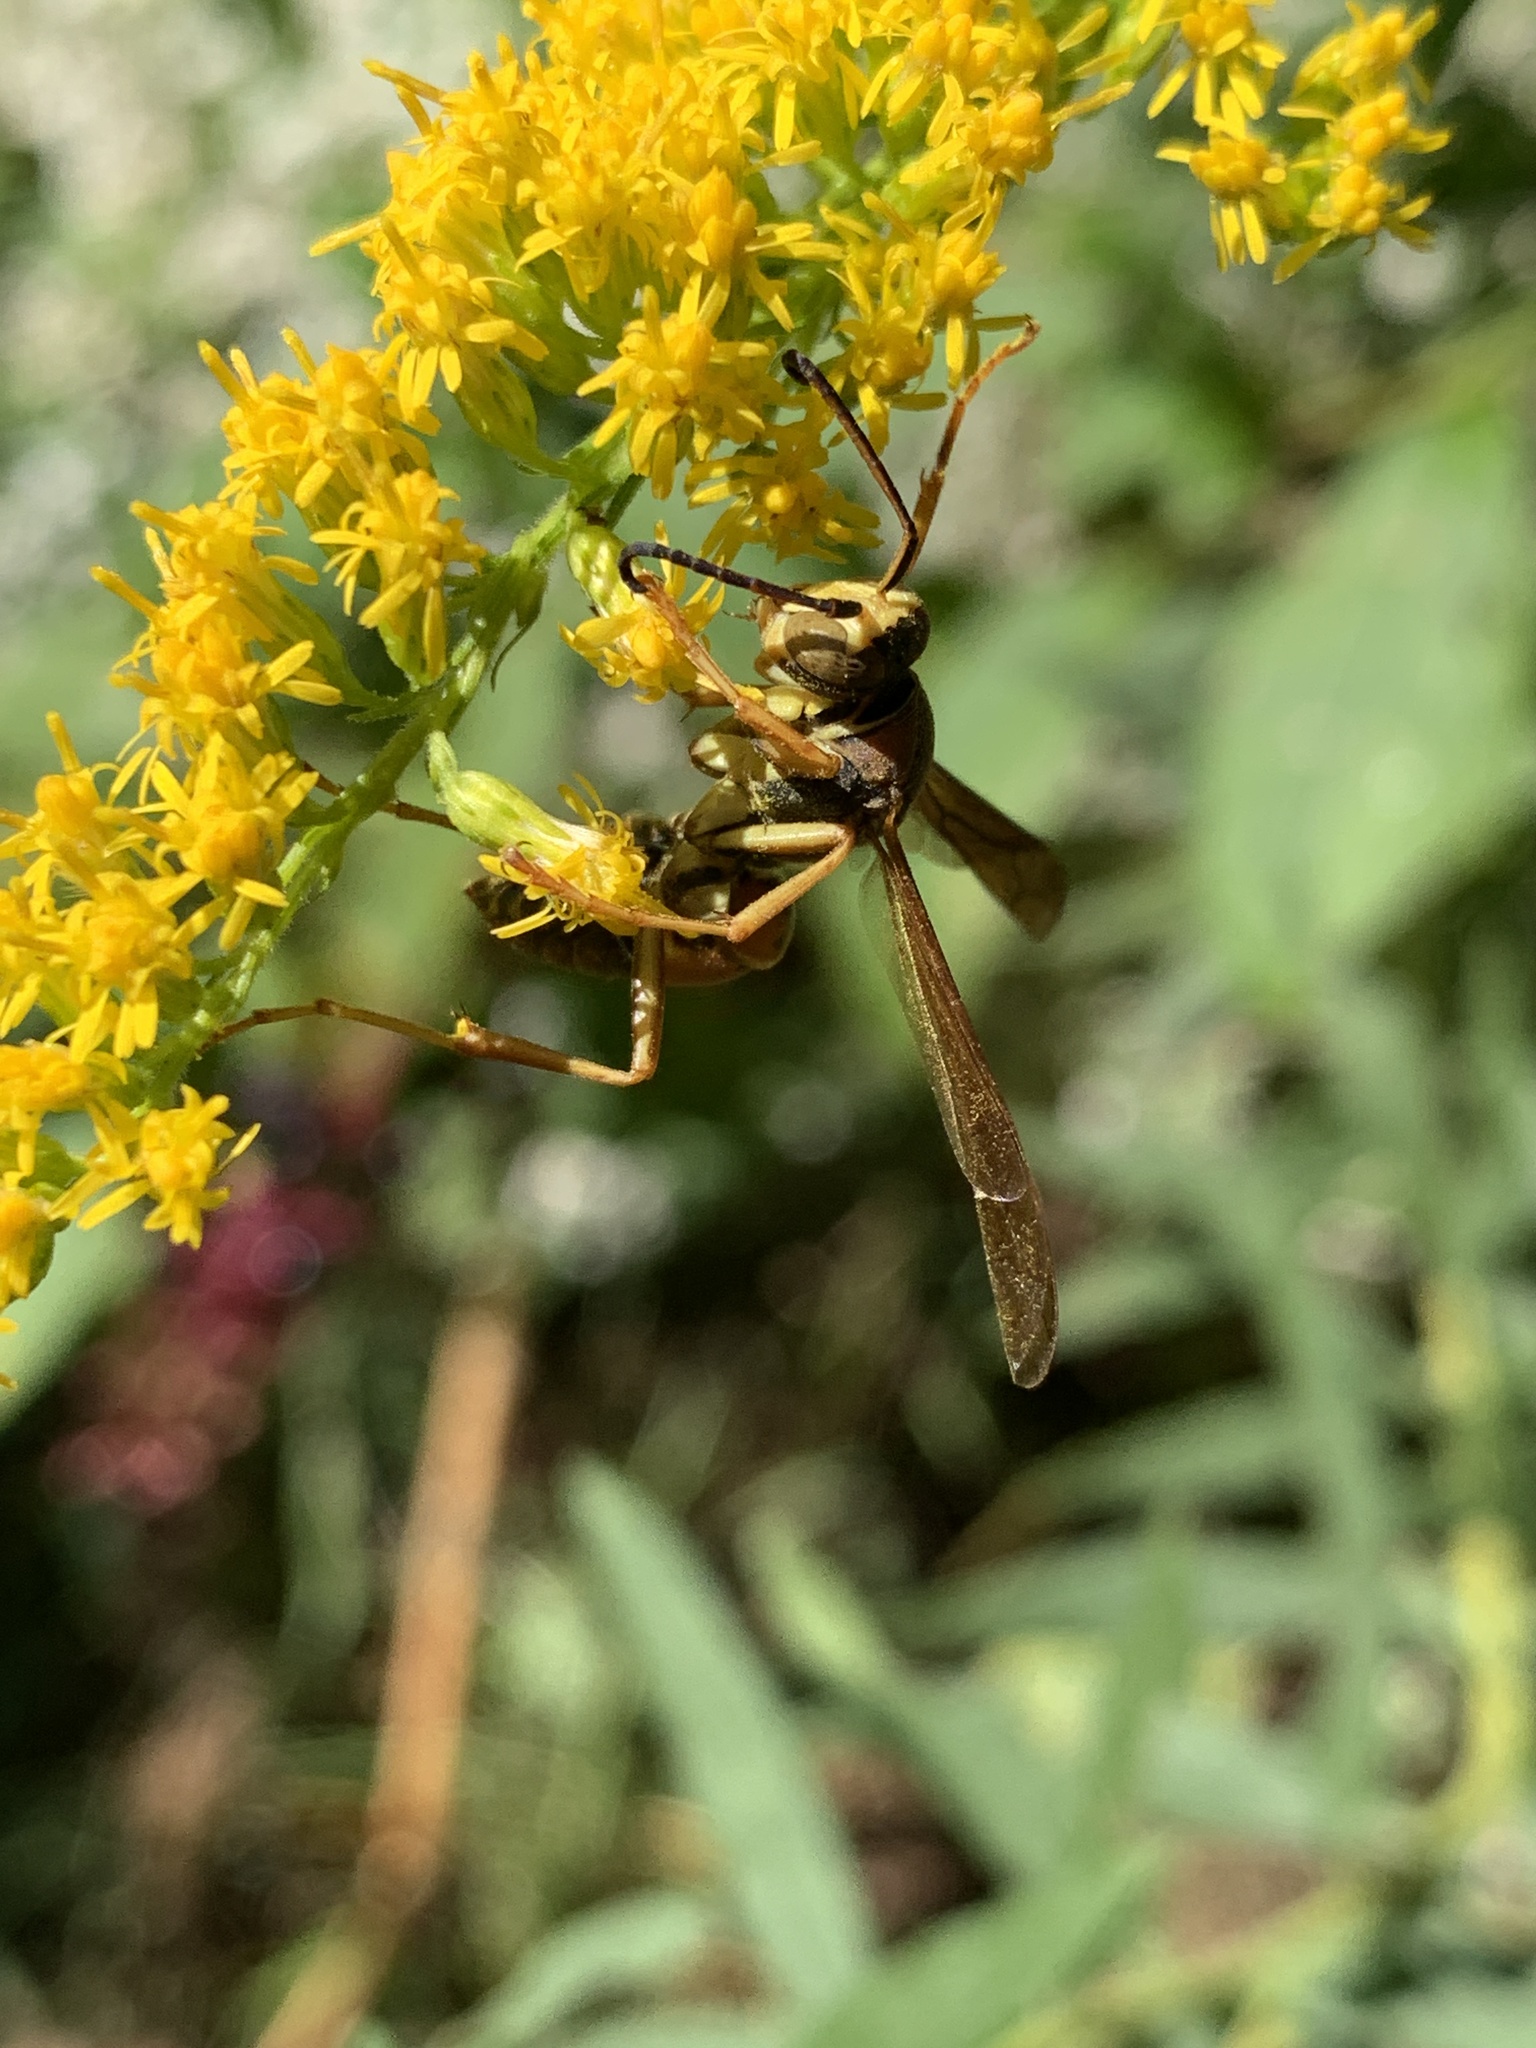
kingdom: Animalia
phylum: Arthropoda
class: Insecta
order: Hymenoptera
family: Eumenidae
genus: Polistes
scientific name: Polistes fuscatus
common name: Dark paper wasp
